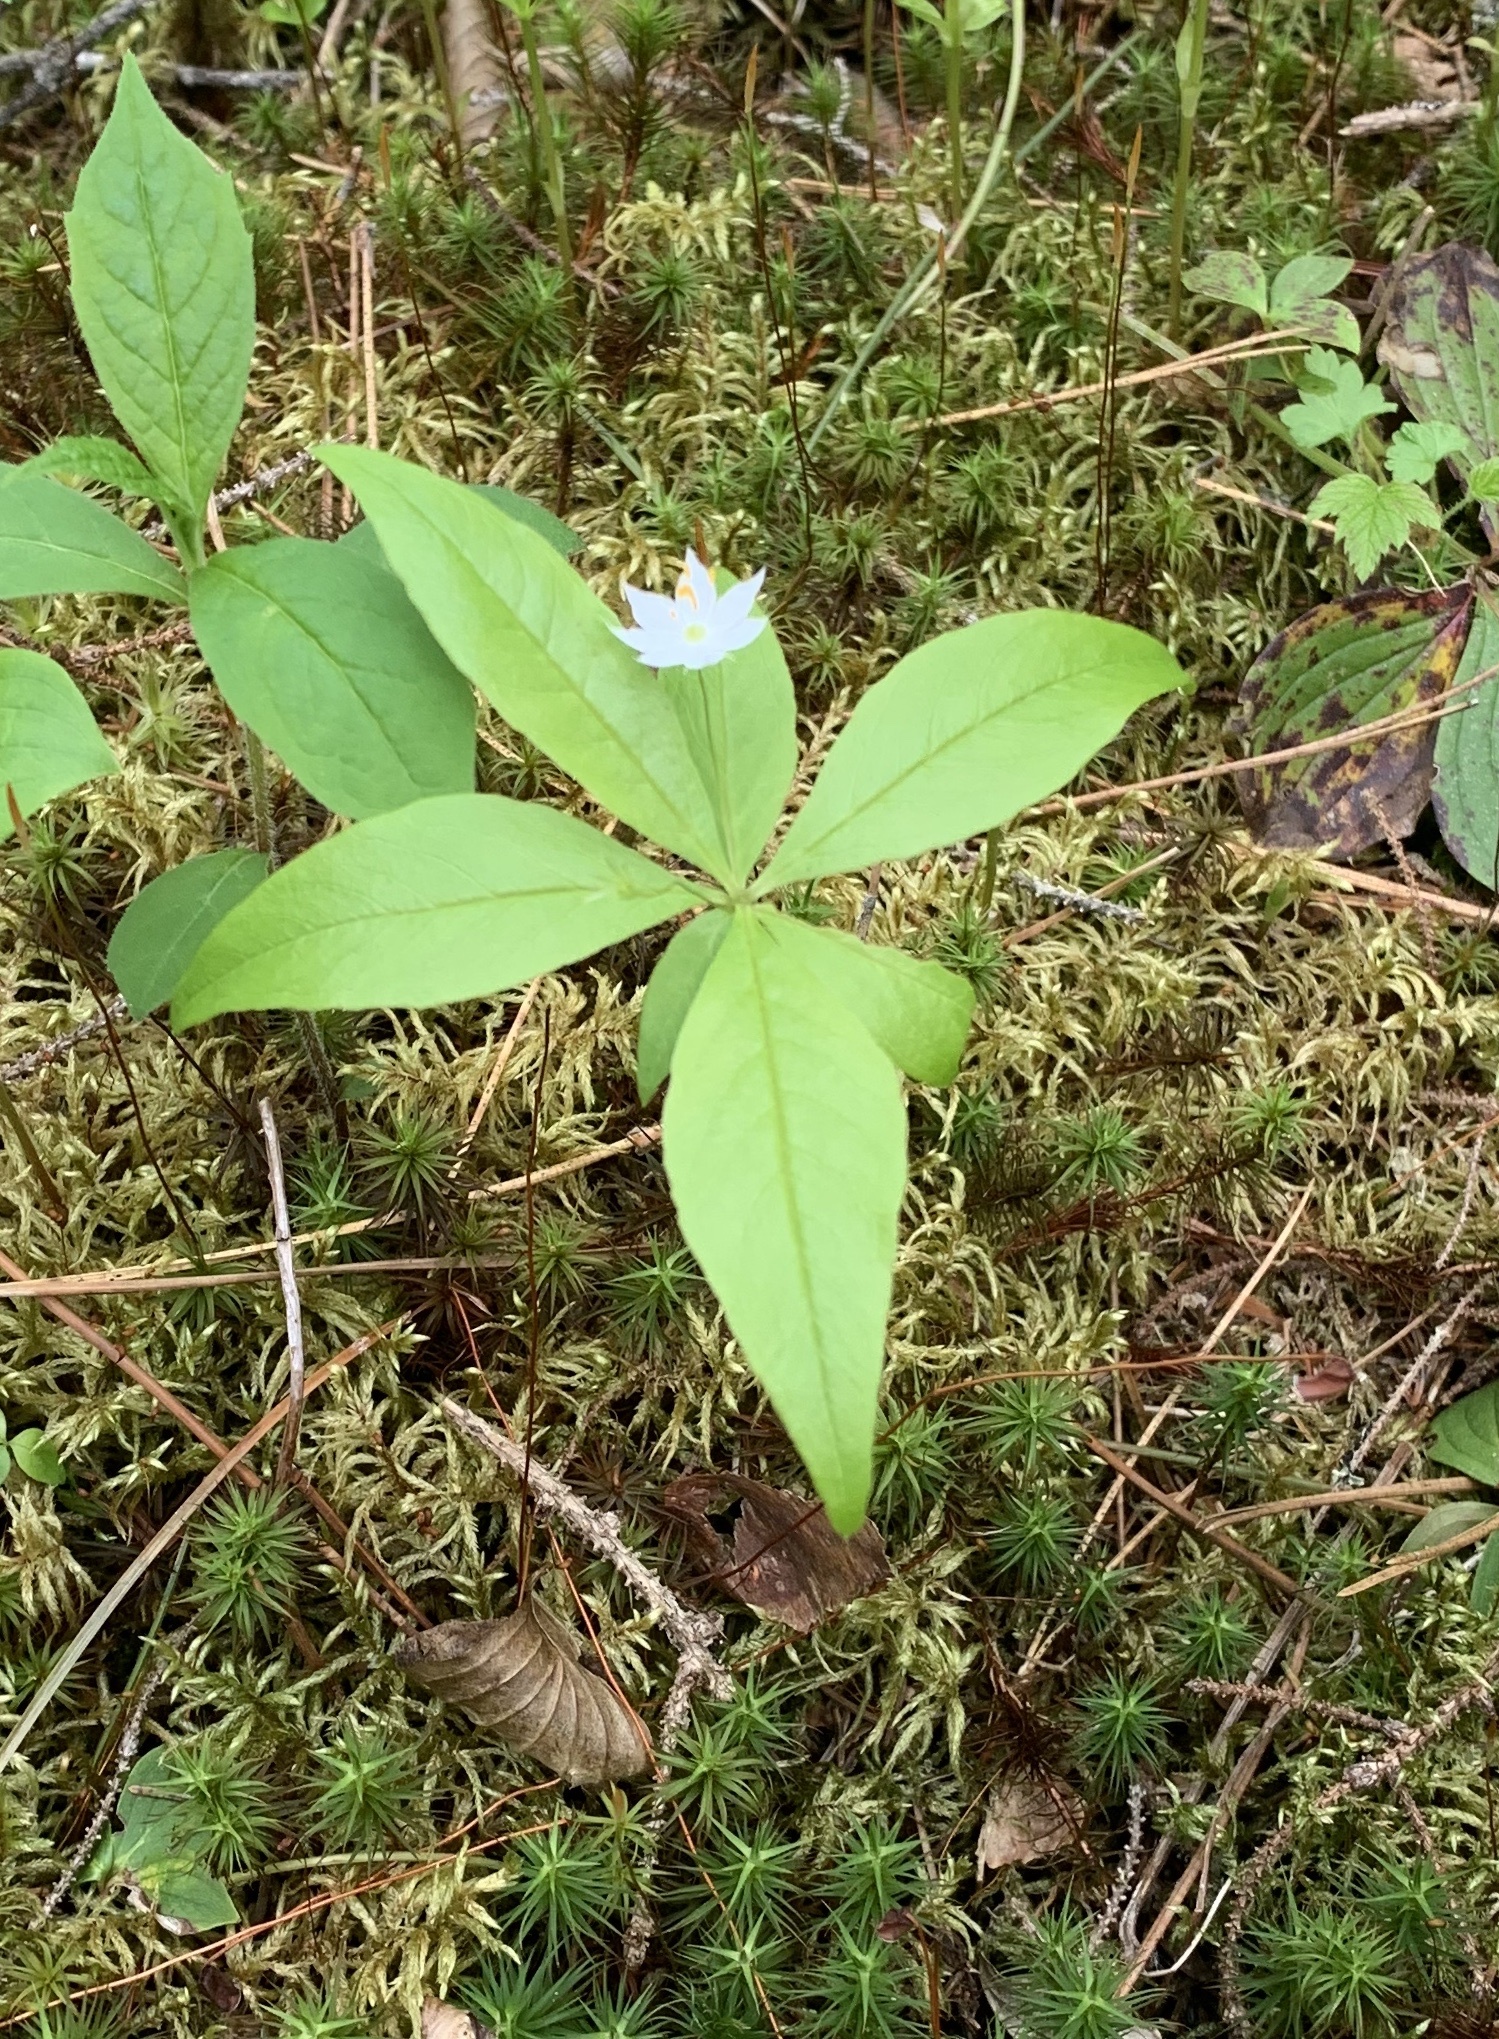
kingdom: Plantae
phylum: Tracheophyta
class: Magnoliopsida
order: Ericales
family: Primulaceae
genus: Lysimachia
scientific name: Lysimachia borealis
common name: American starflower
